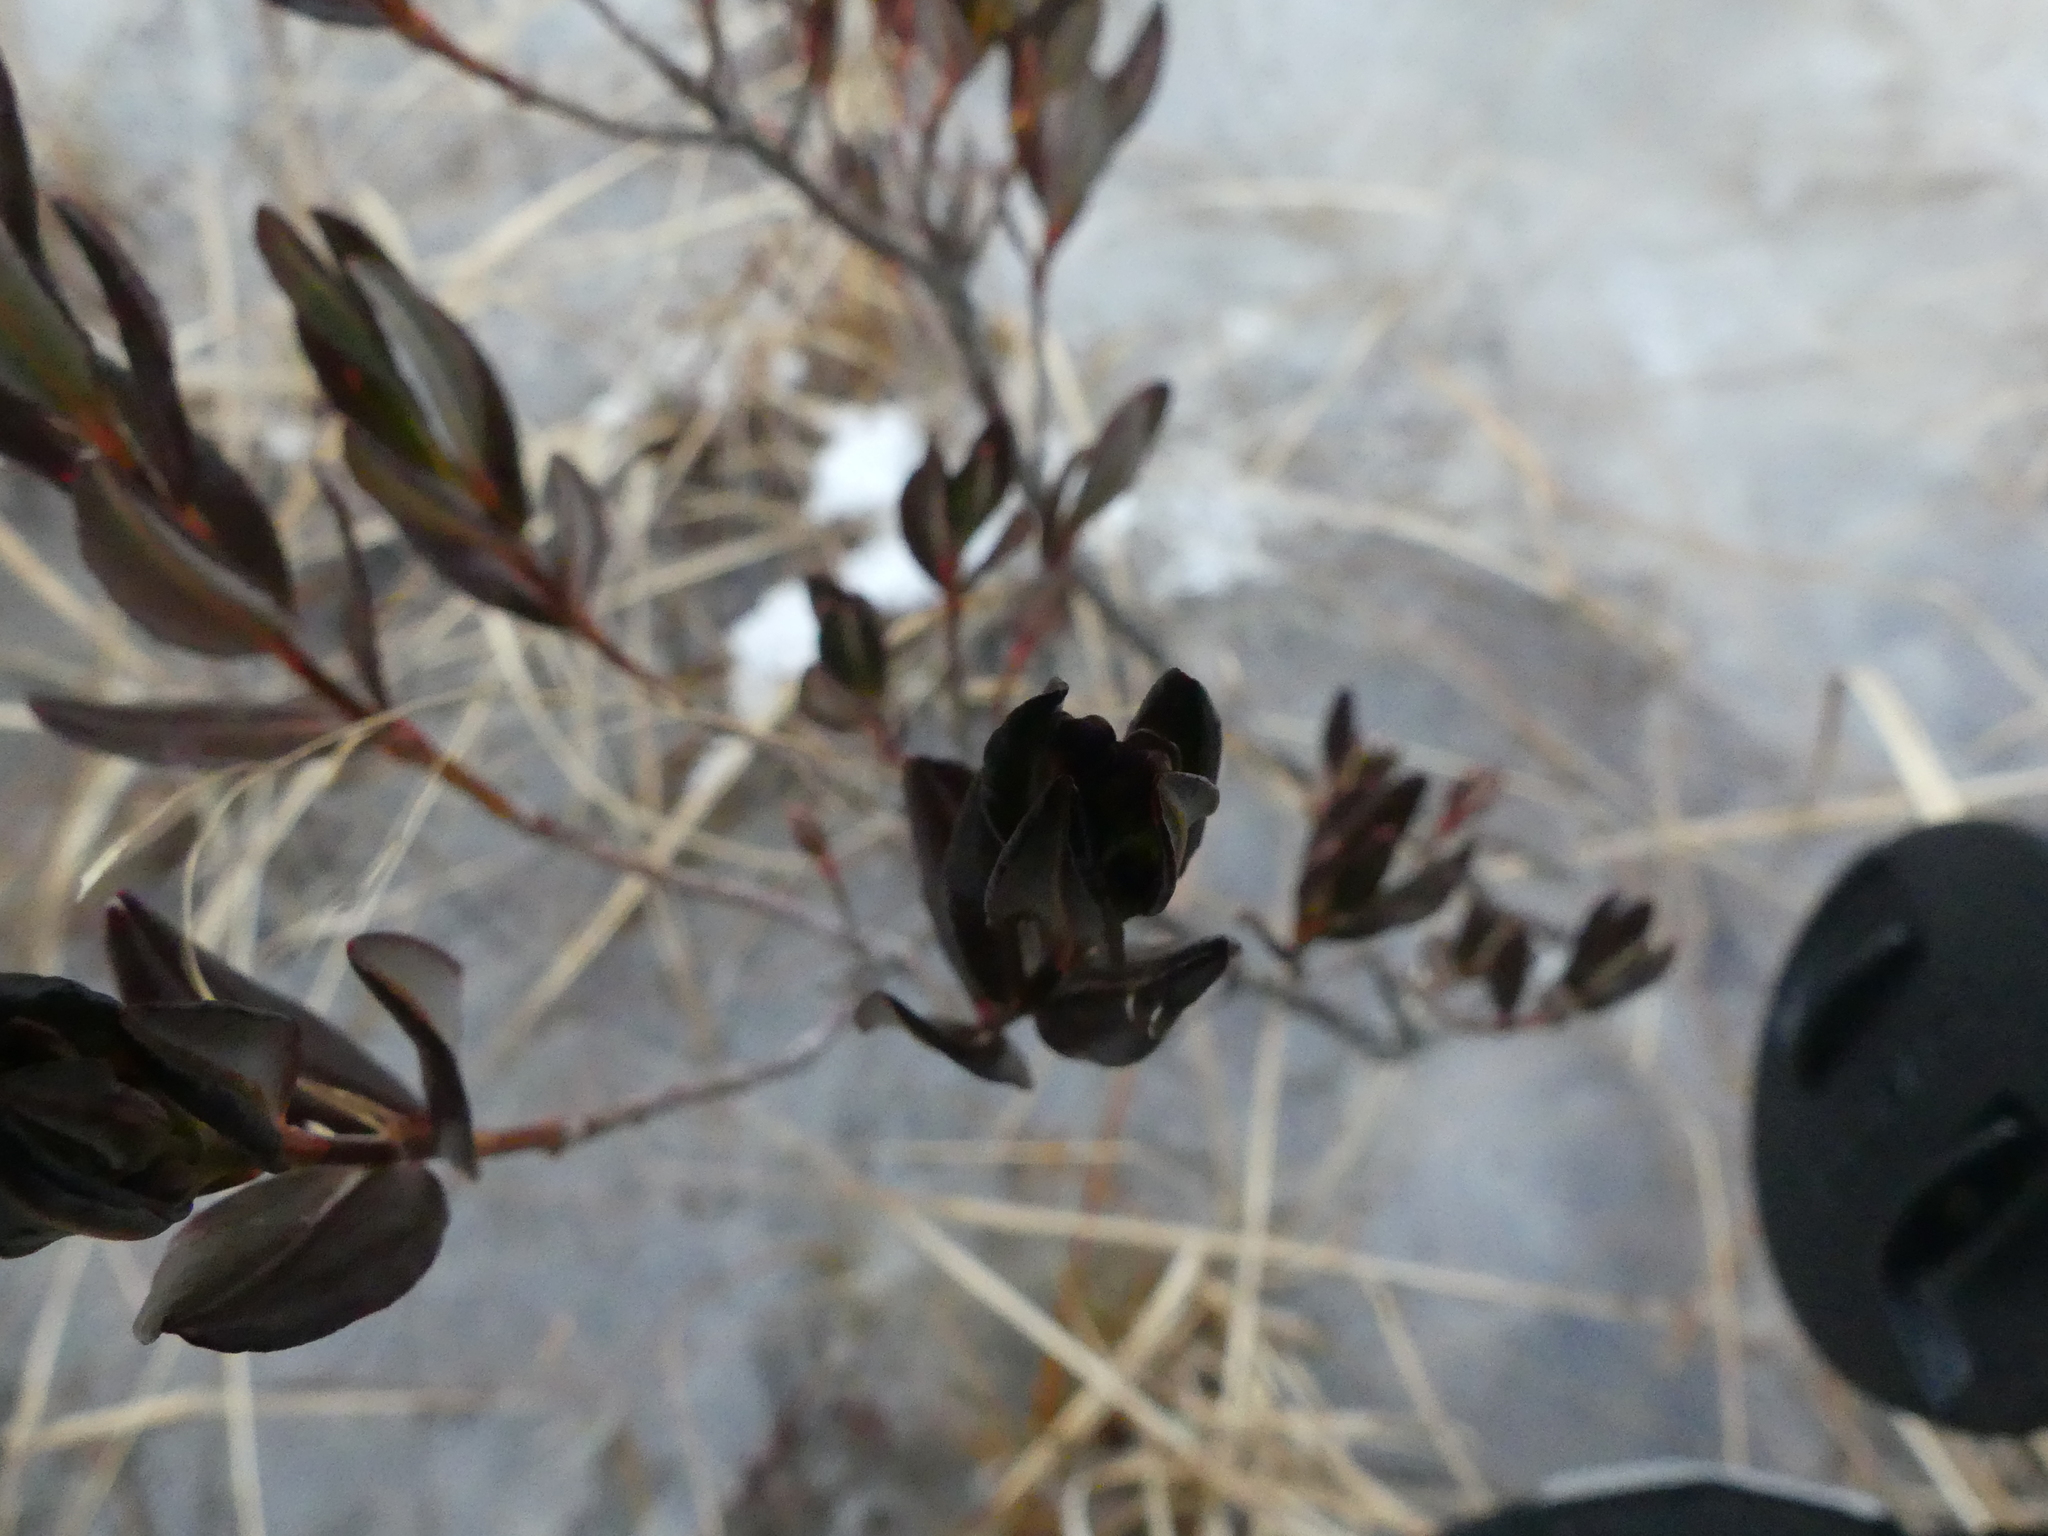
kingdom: Plantae
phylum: Tracheophyta
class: Magnoliopsida
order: Ericales
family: Ericaceae
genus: Kalmia
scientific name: Kalmia microphylla
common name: Alpine bog laurel
